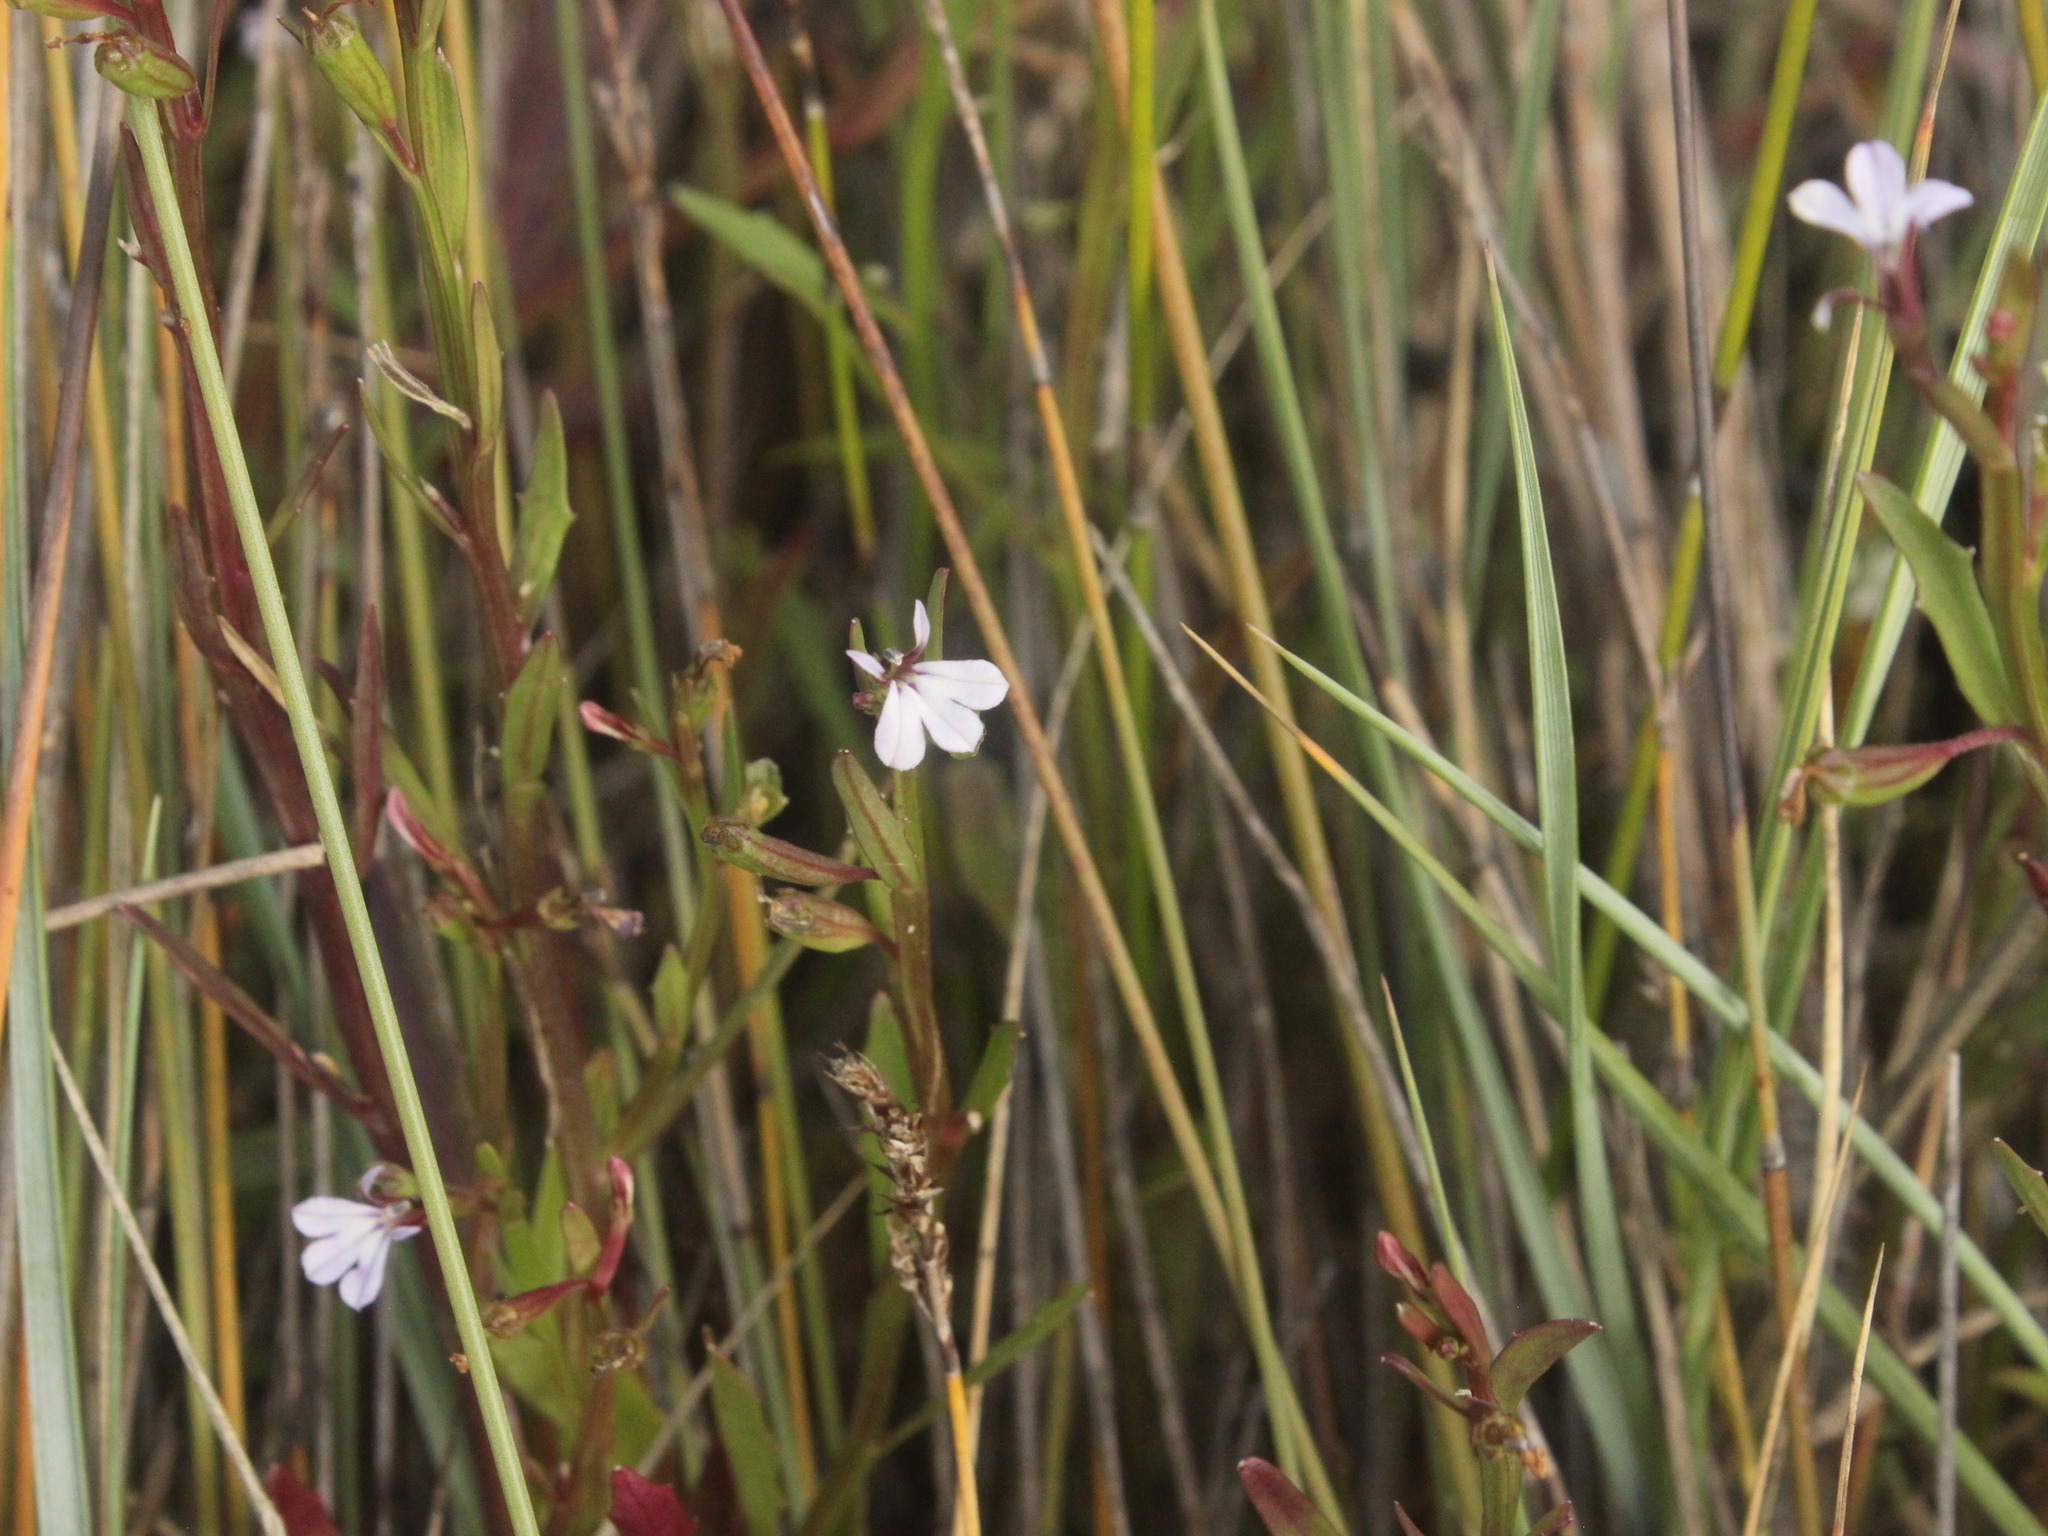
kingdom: Plantae
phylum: Tracheophyta
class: Magnoliopsida
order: Asterales
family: Campanulaceae
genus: Lobelia
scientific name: Lobelia anceps
